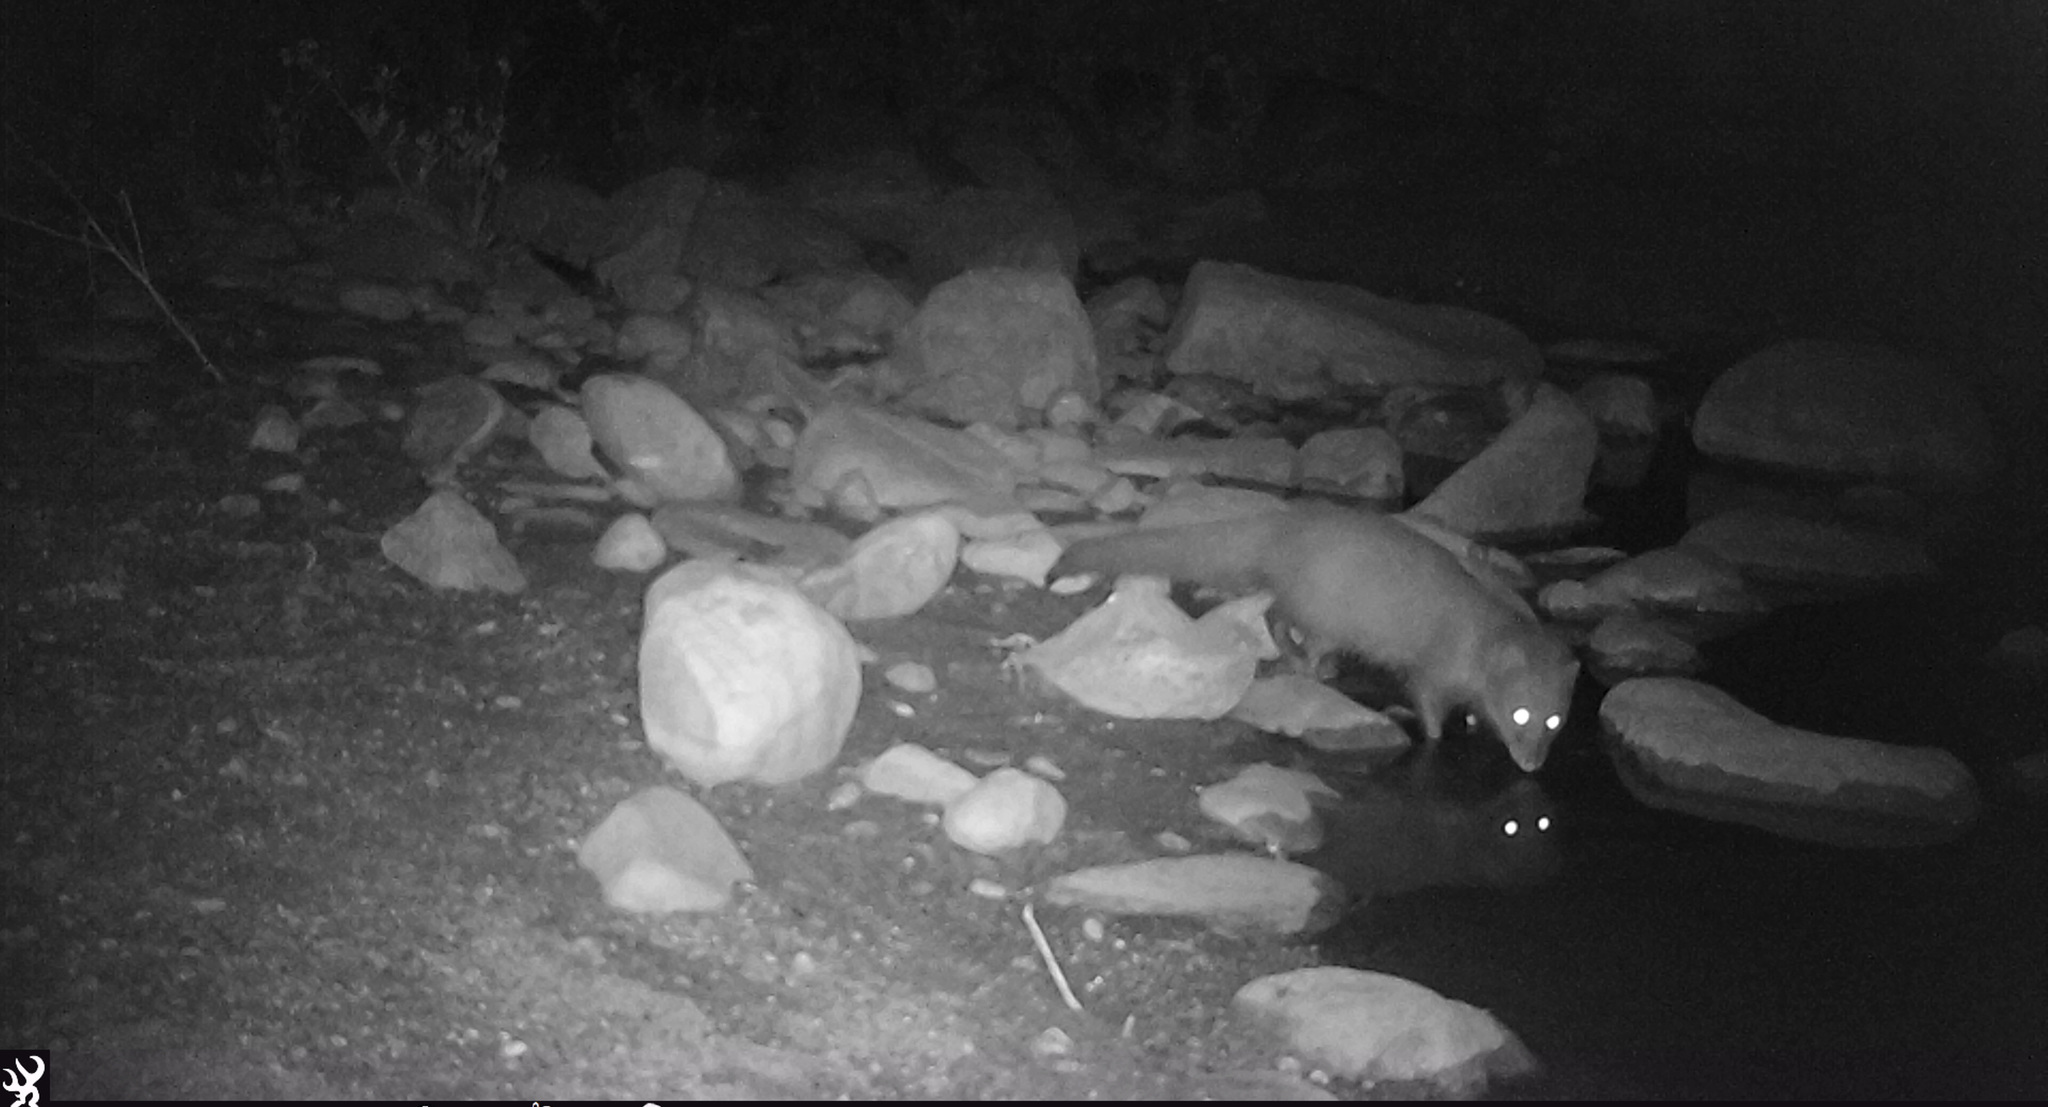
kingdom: Animalia
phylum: Chordata
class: Mammalia
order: Carnivora
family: Herpestidae
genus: Atilax
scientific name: Atilax paludinosus
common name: Marsh mongoose
